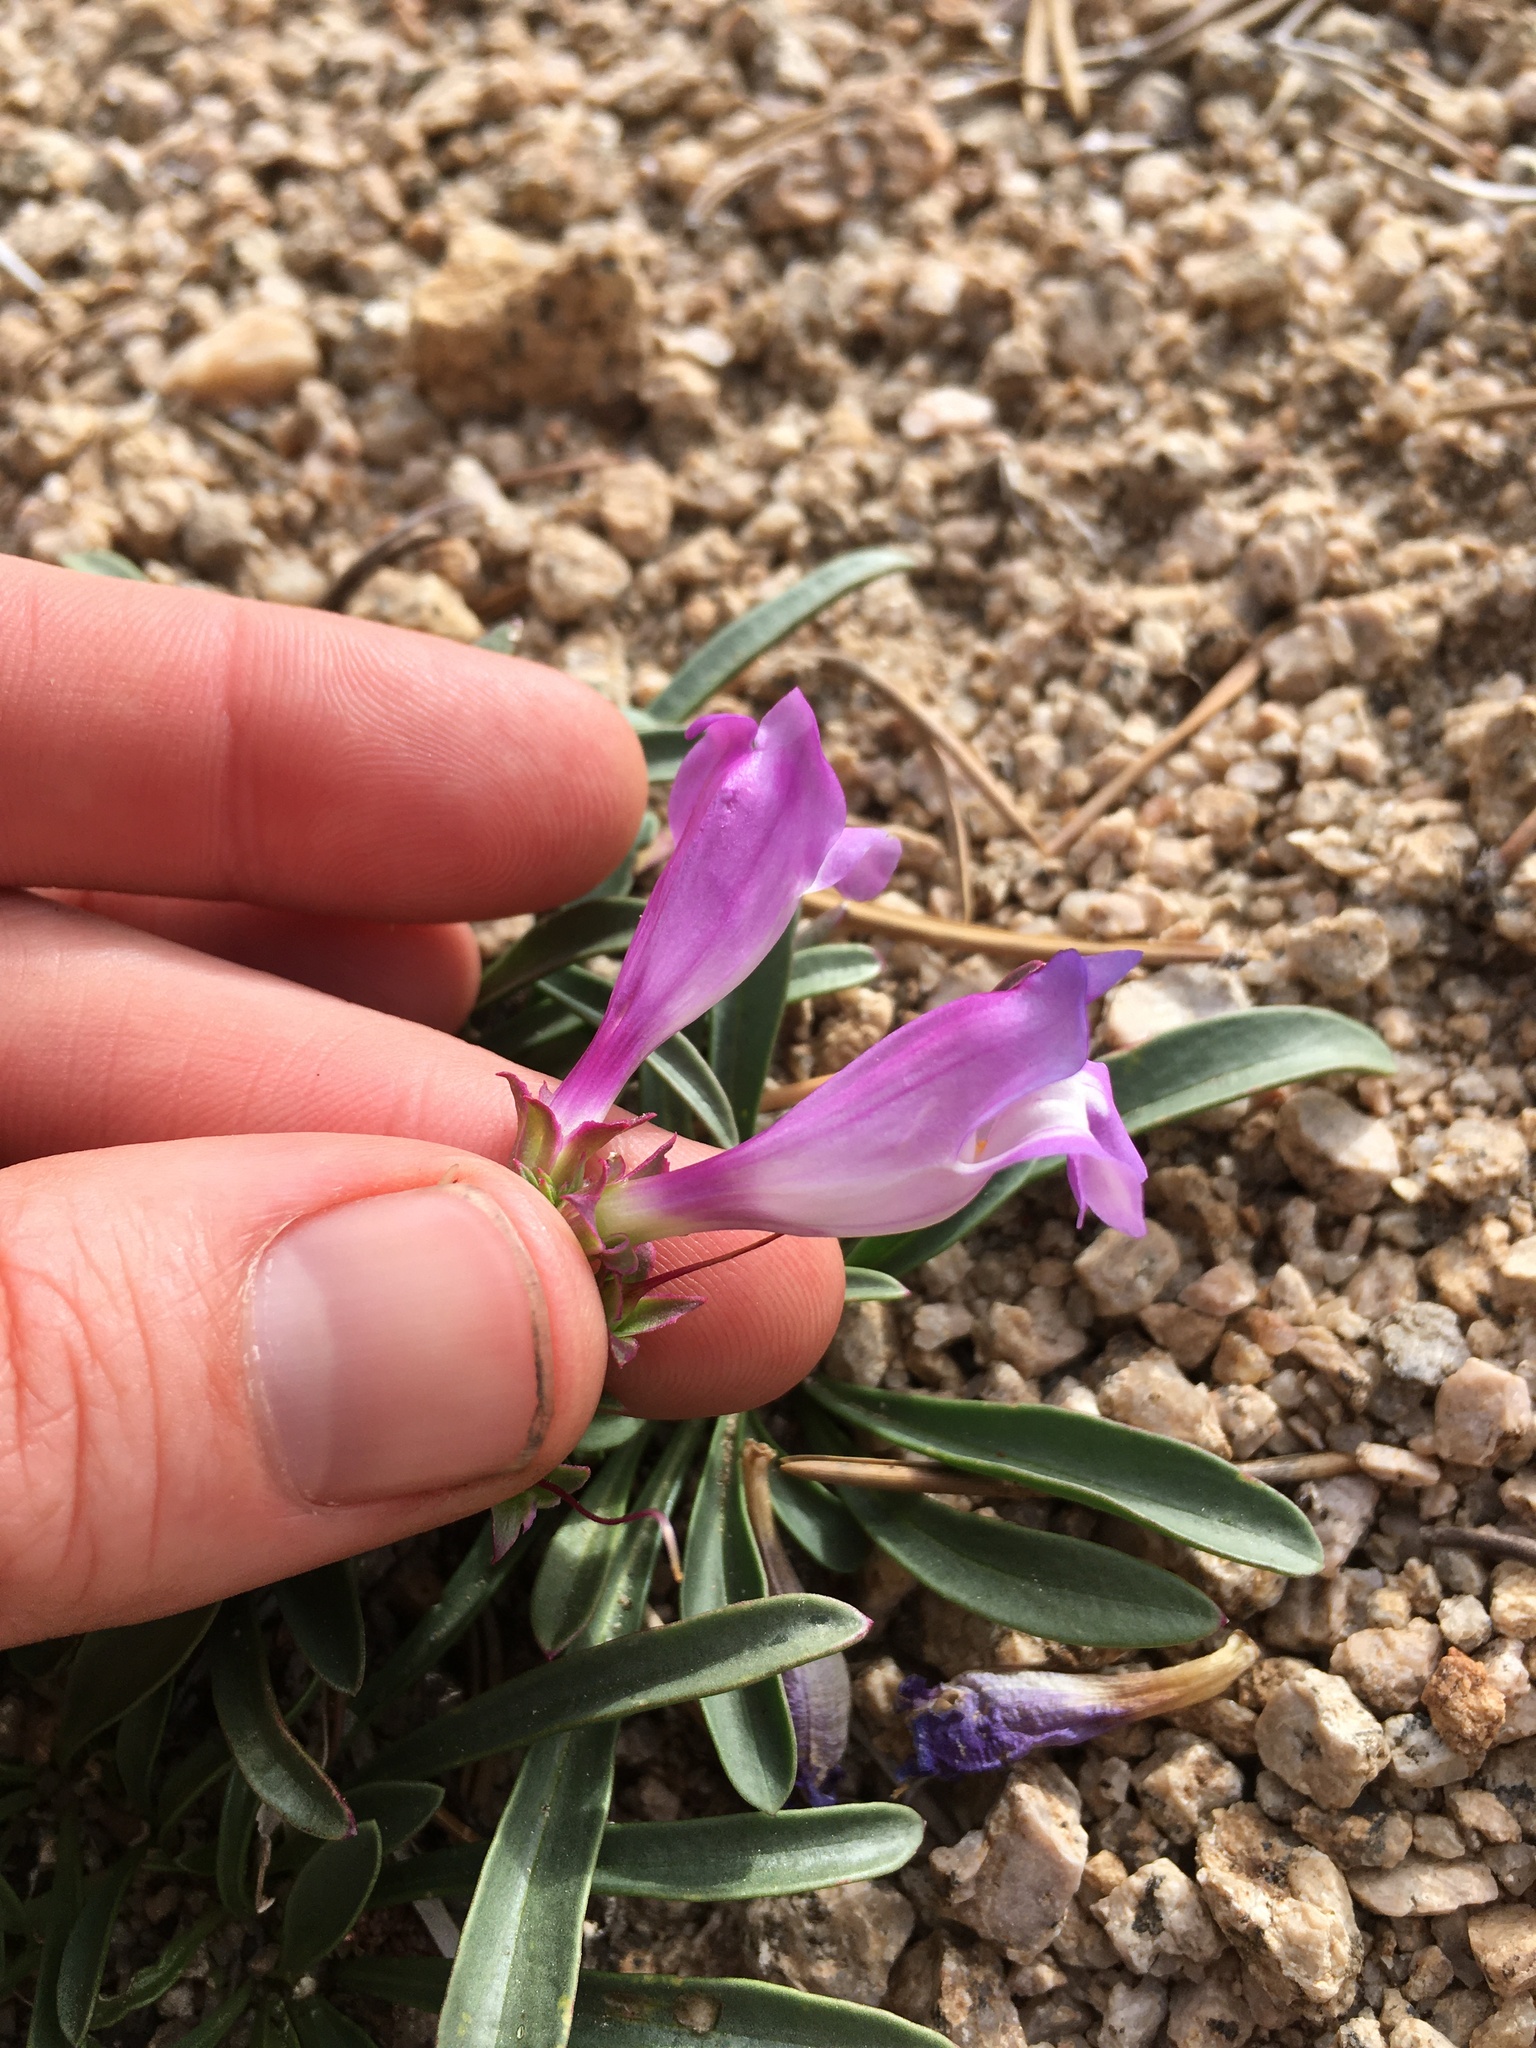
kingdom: Plantae
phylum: Tracheophyta
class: Magnoliopsida
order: Lamiales
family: Plantaginaceae
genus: Penstemon
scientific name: Penstemon speciosus
